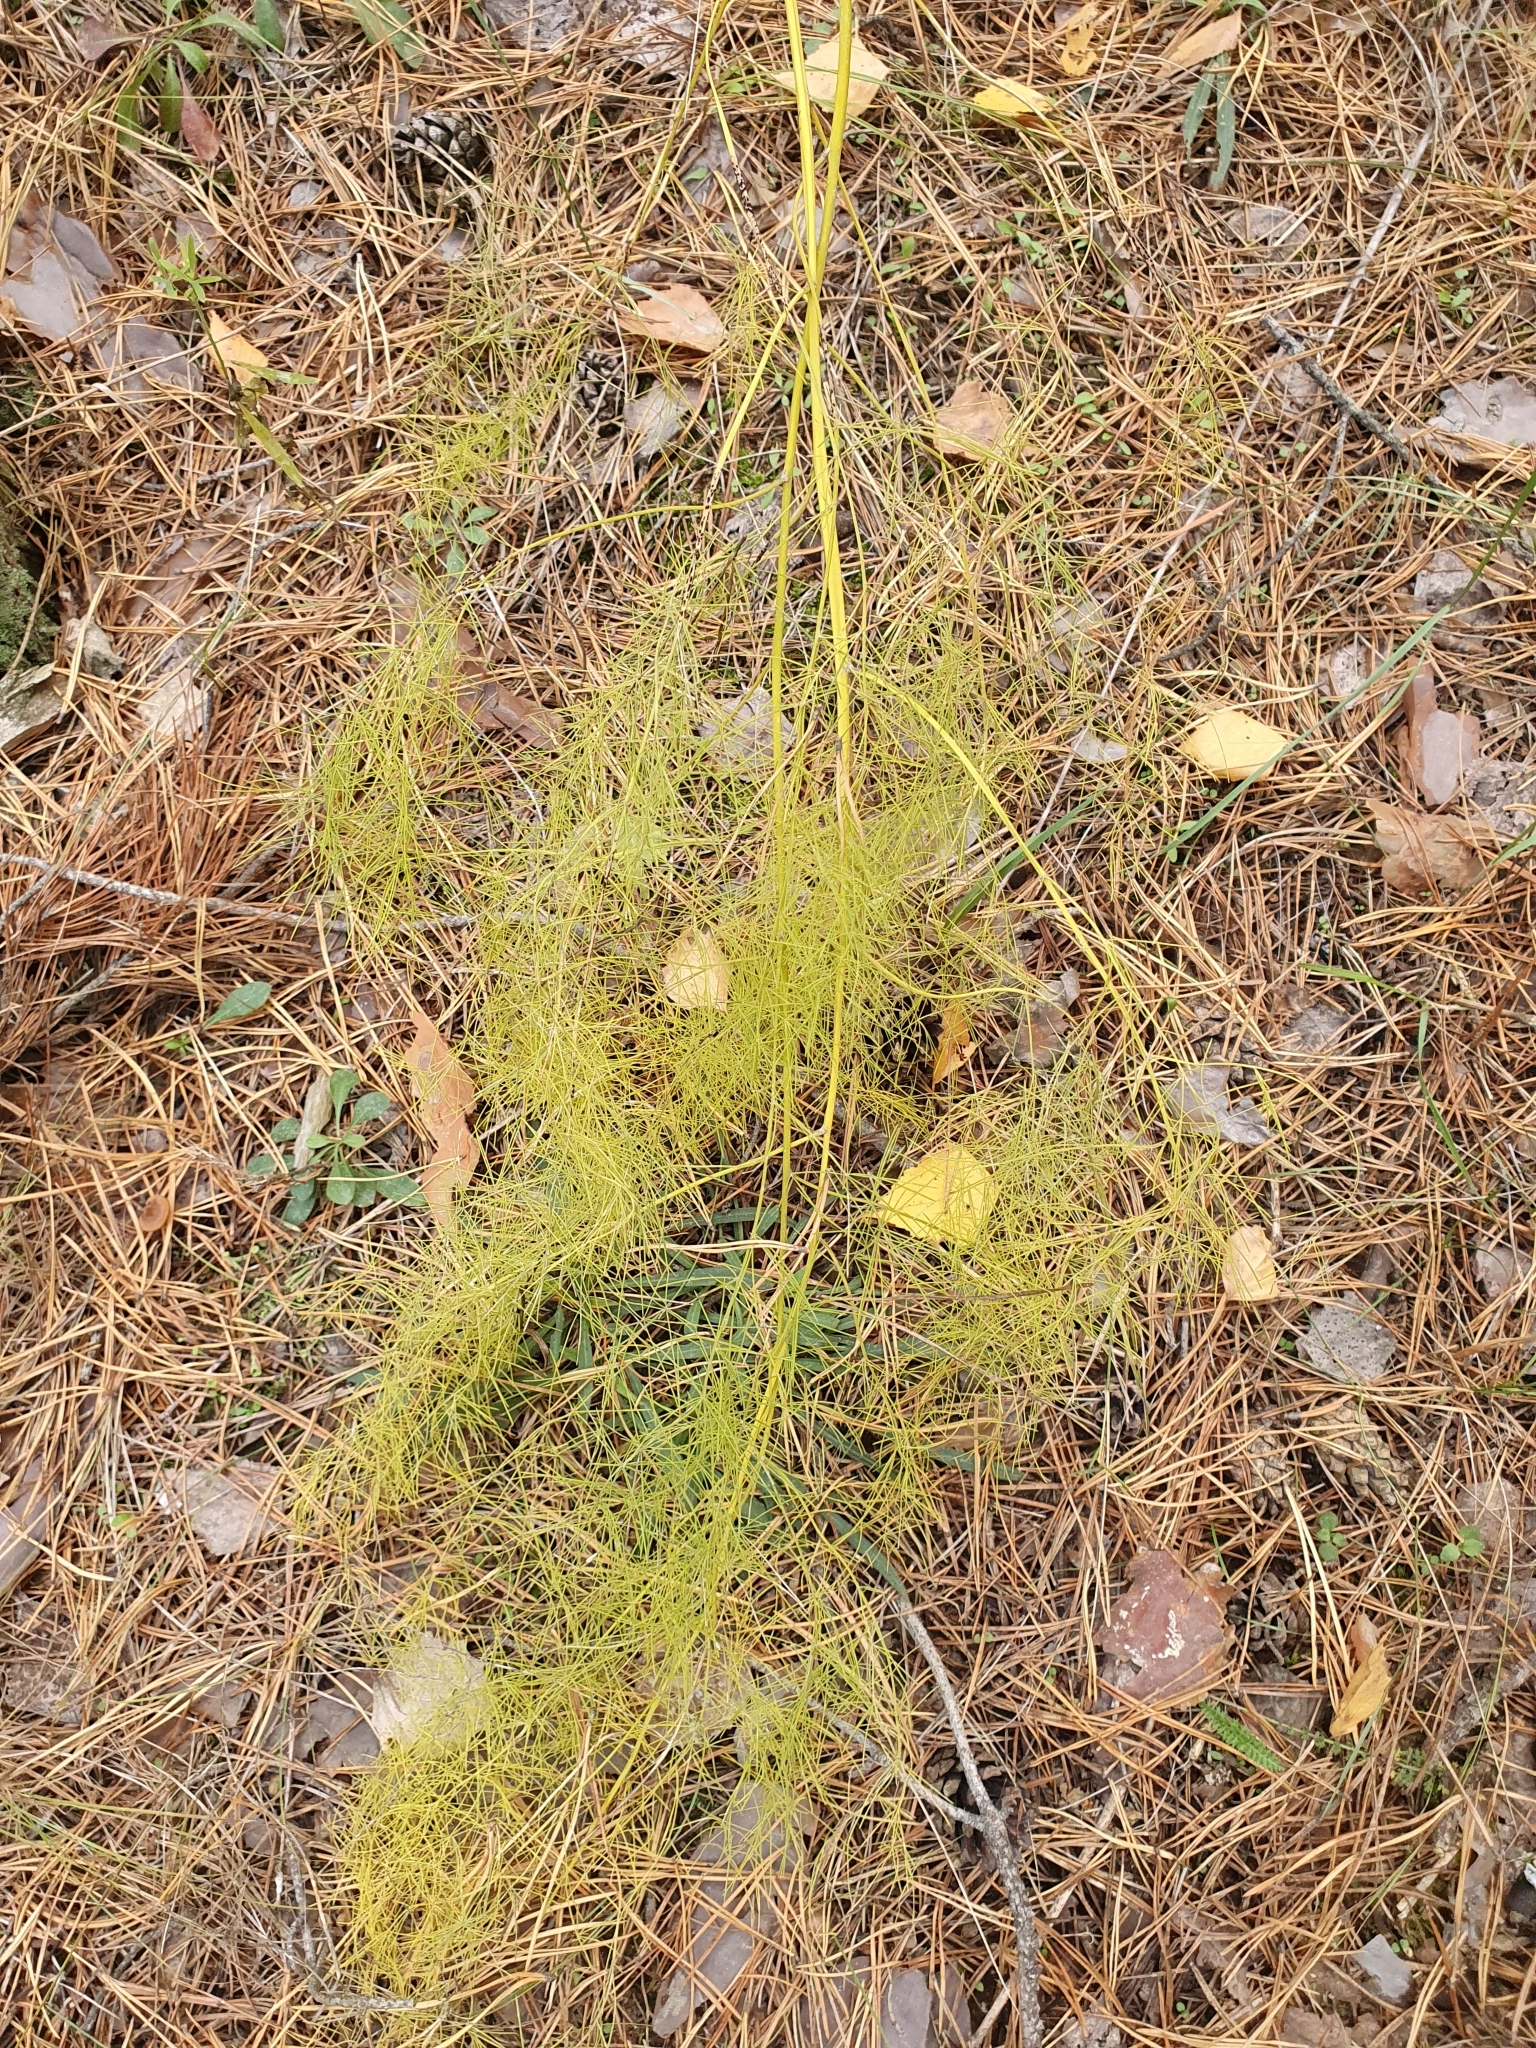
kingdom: Plantae
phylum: Tracheophyta
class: Liliopsida
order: Asparagales
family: Asparagaceae
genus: Asparagus
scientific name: Asparagus officinalis
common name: Garden asparagus
